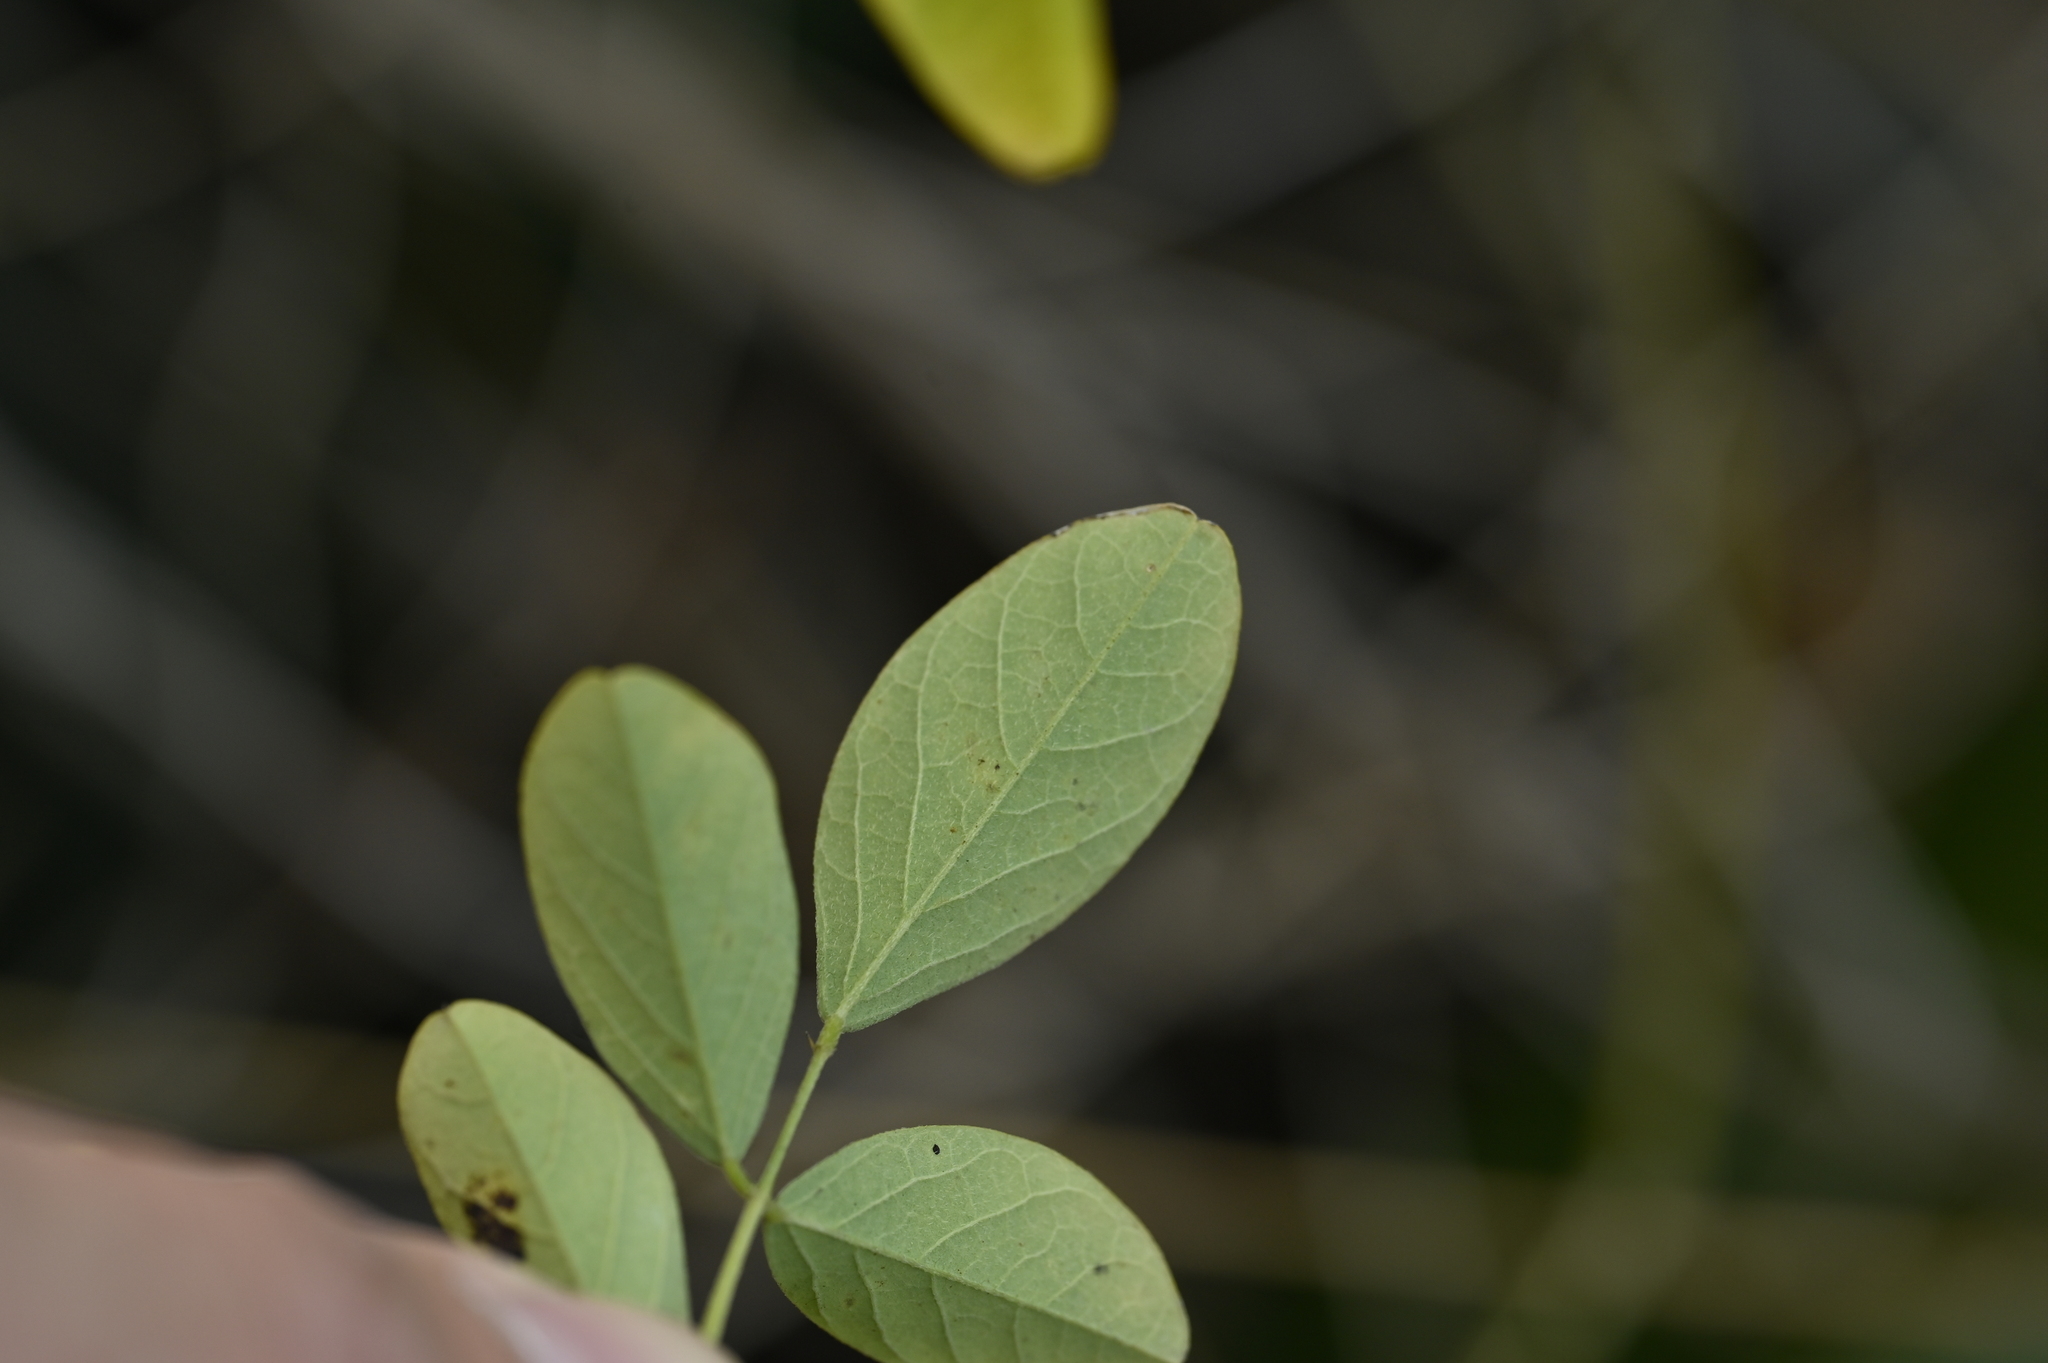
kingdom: Plantae
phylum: Tracheophyta
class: Magnoliopsida
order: Fabales
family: Fabaceae
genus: Clitoria
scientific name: Clitoria ternatea
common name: Asian pigeonwings
